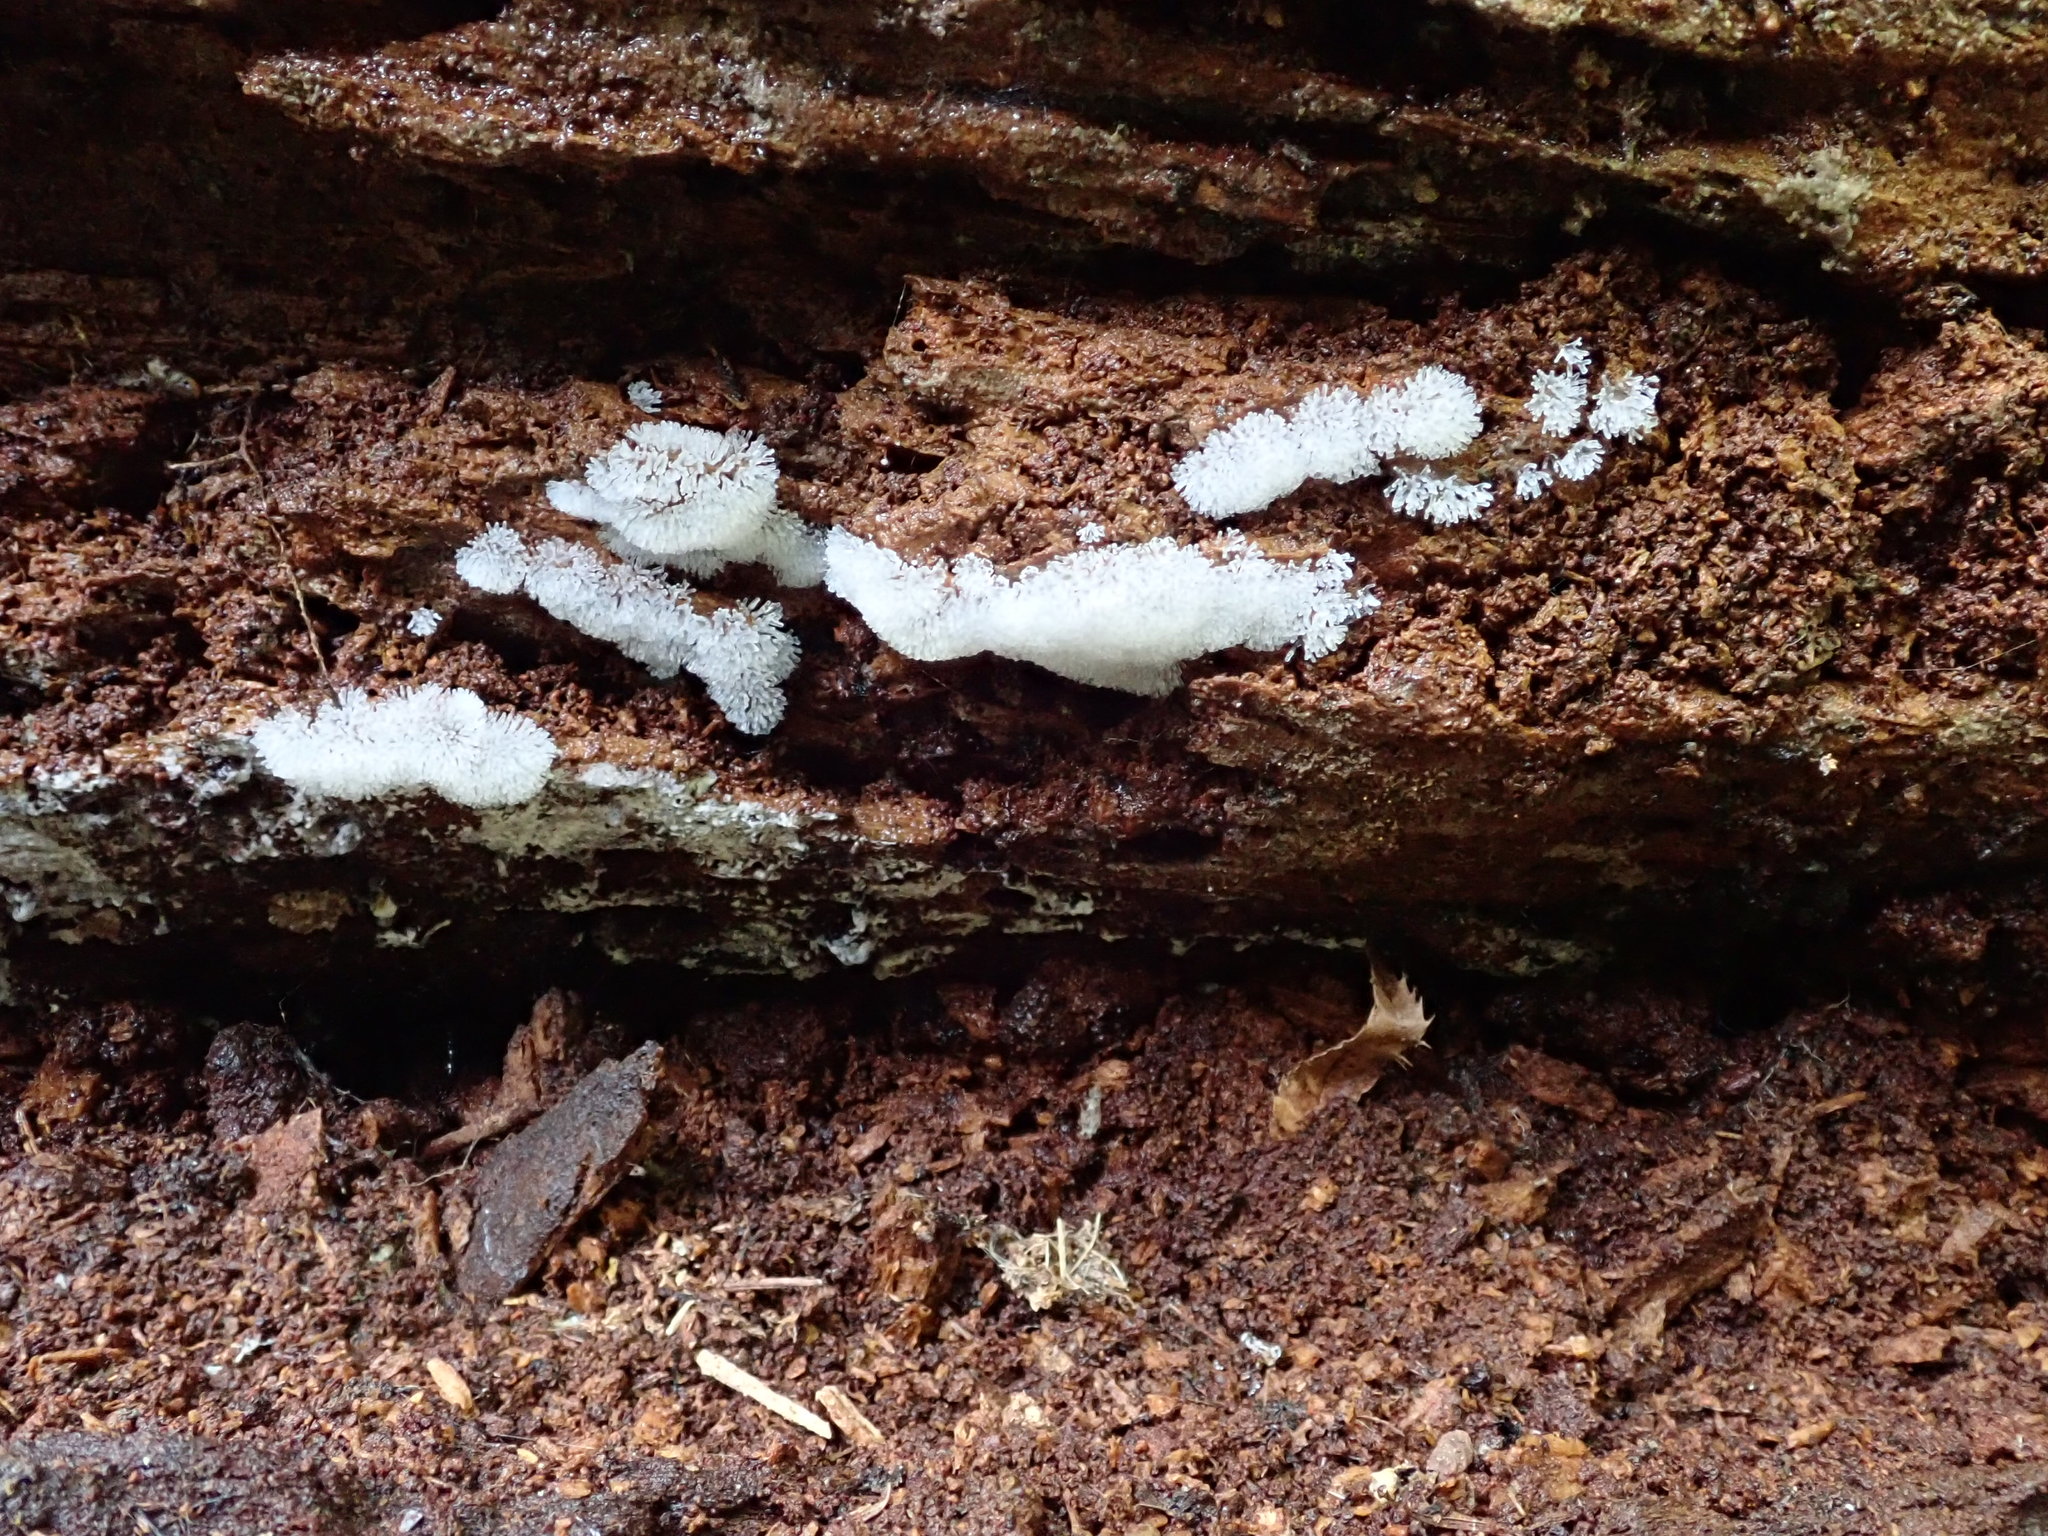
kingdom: Protozoa
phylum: Mycetozoa
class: Protosteliomycetes
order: Ceratiomyxales
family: Ceratiomyxaceae
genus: Ceratiomyxa
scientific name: Ceratiomyxa fruticulosa
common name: Honeycomb coral slime mold
